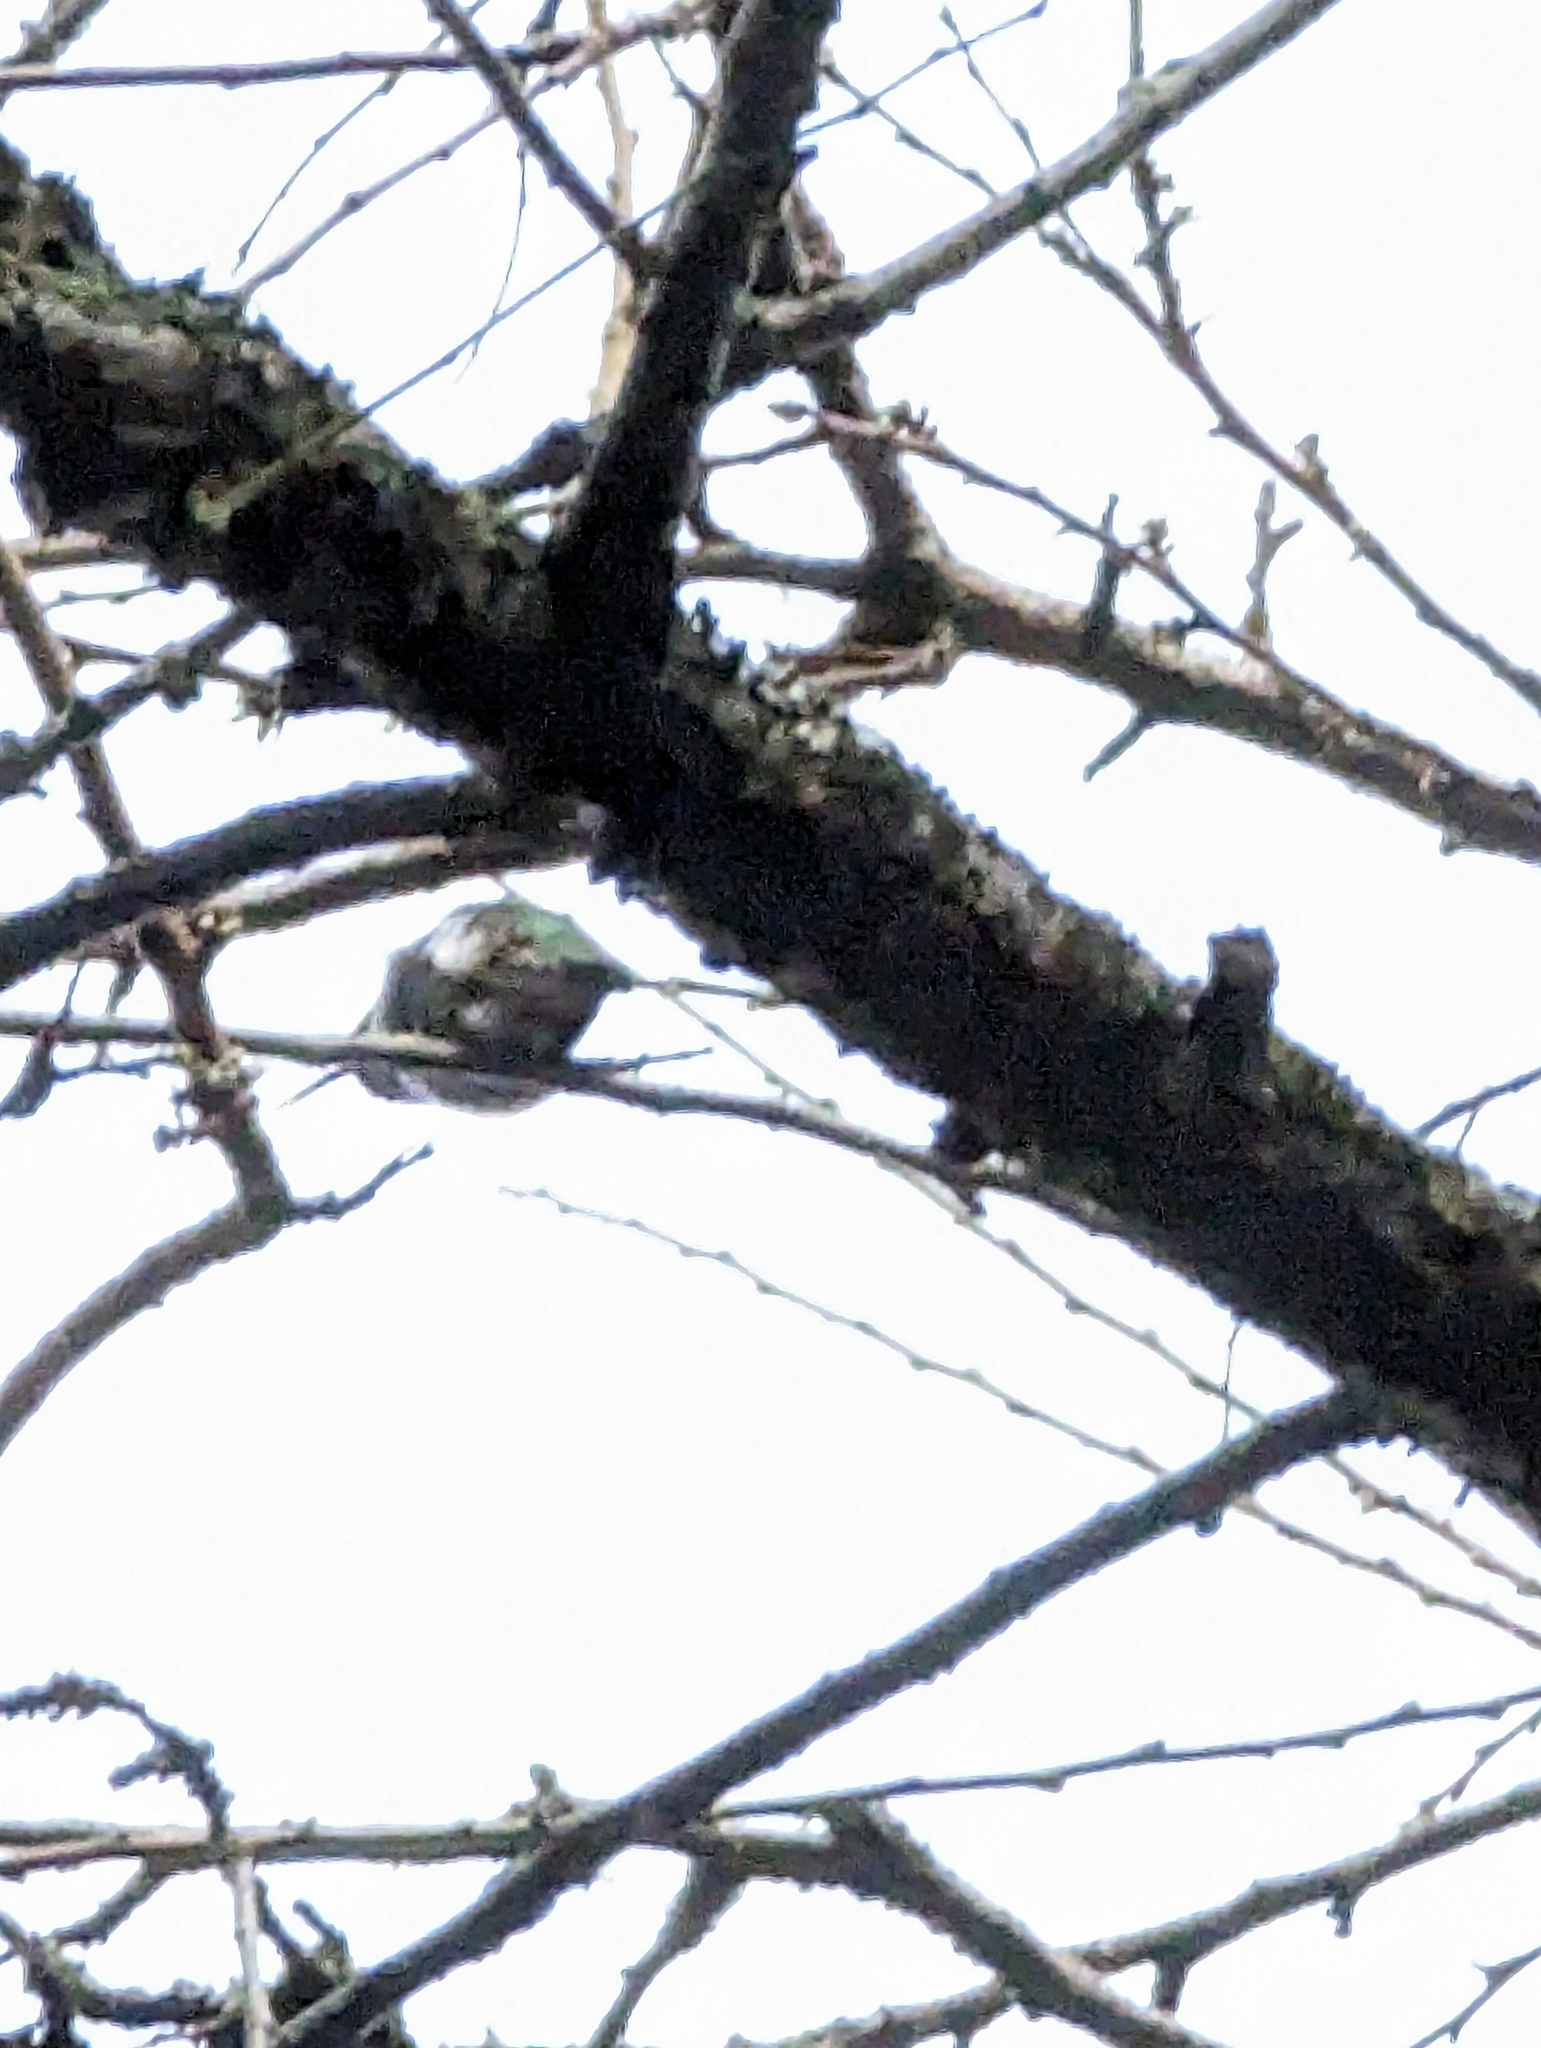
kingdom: Animalia
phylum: Chordata
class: Aves
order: Apodiformes
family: Trochilidae
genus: Calypte
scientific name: Calypte anna
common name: Anna's hummingbird
